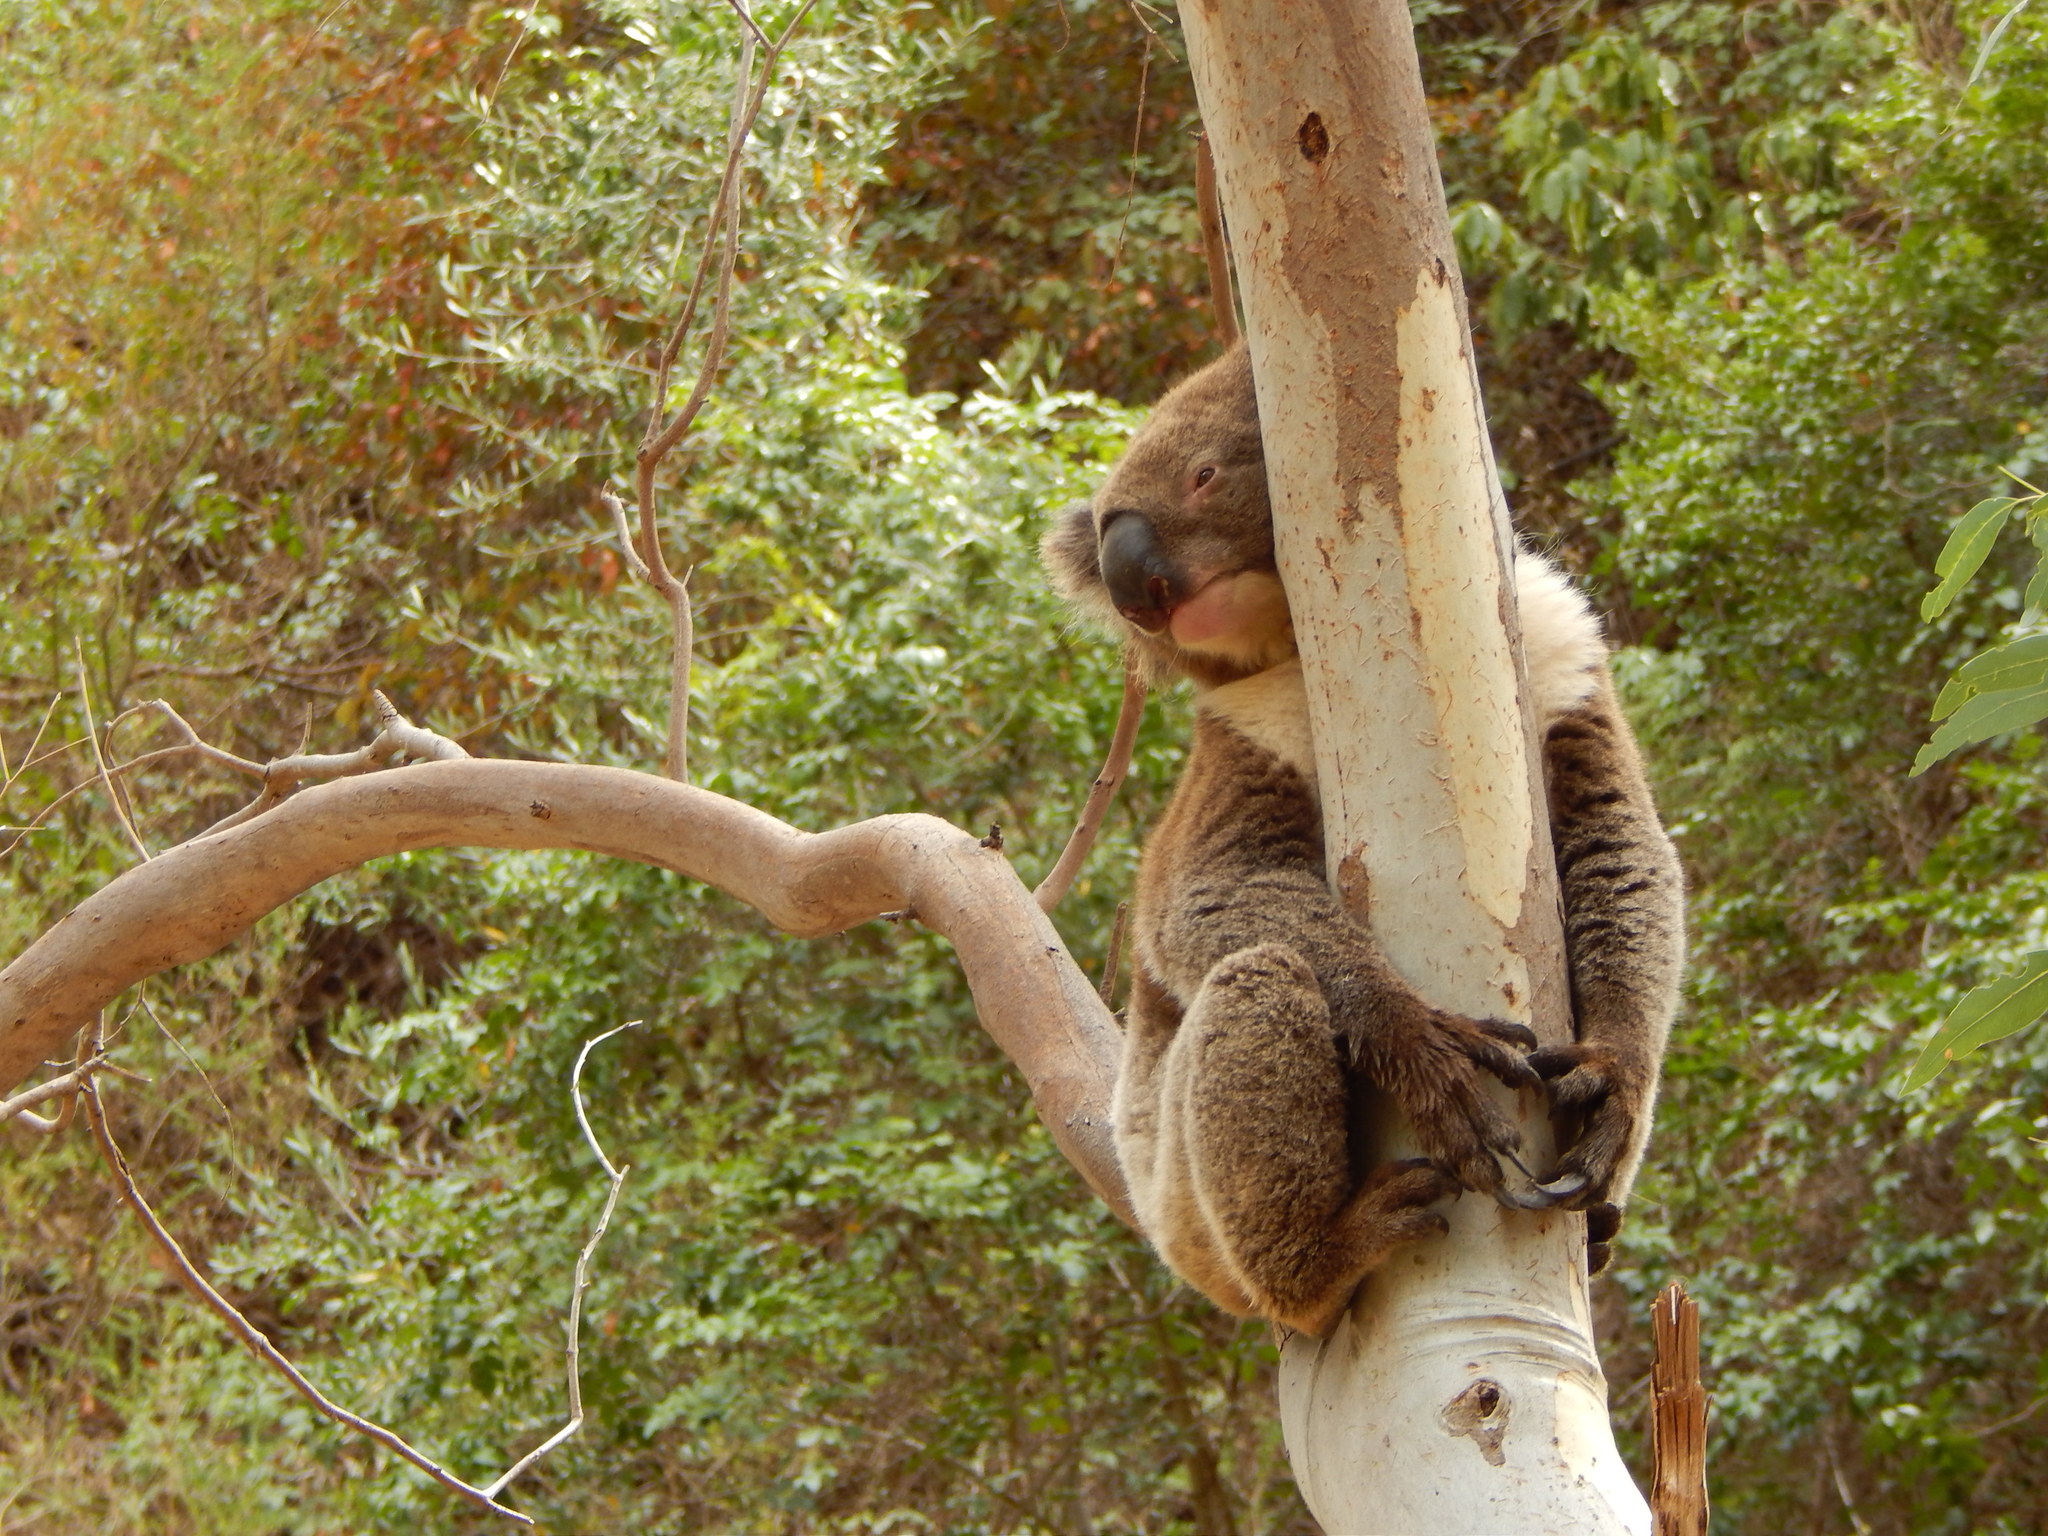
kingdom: Animalia
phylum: Chordata
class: Mammalia
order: Diprotodontia
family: Phascolarctidae
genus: Phascolarctos
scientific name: Phascolarctos cinereus
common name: Koala
